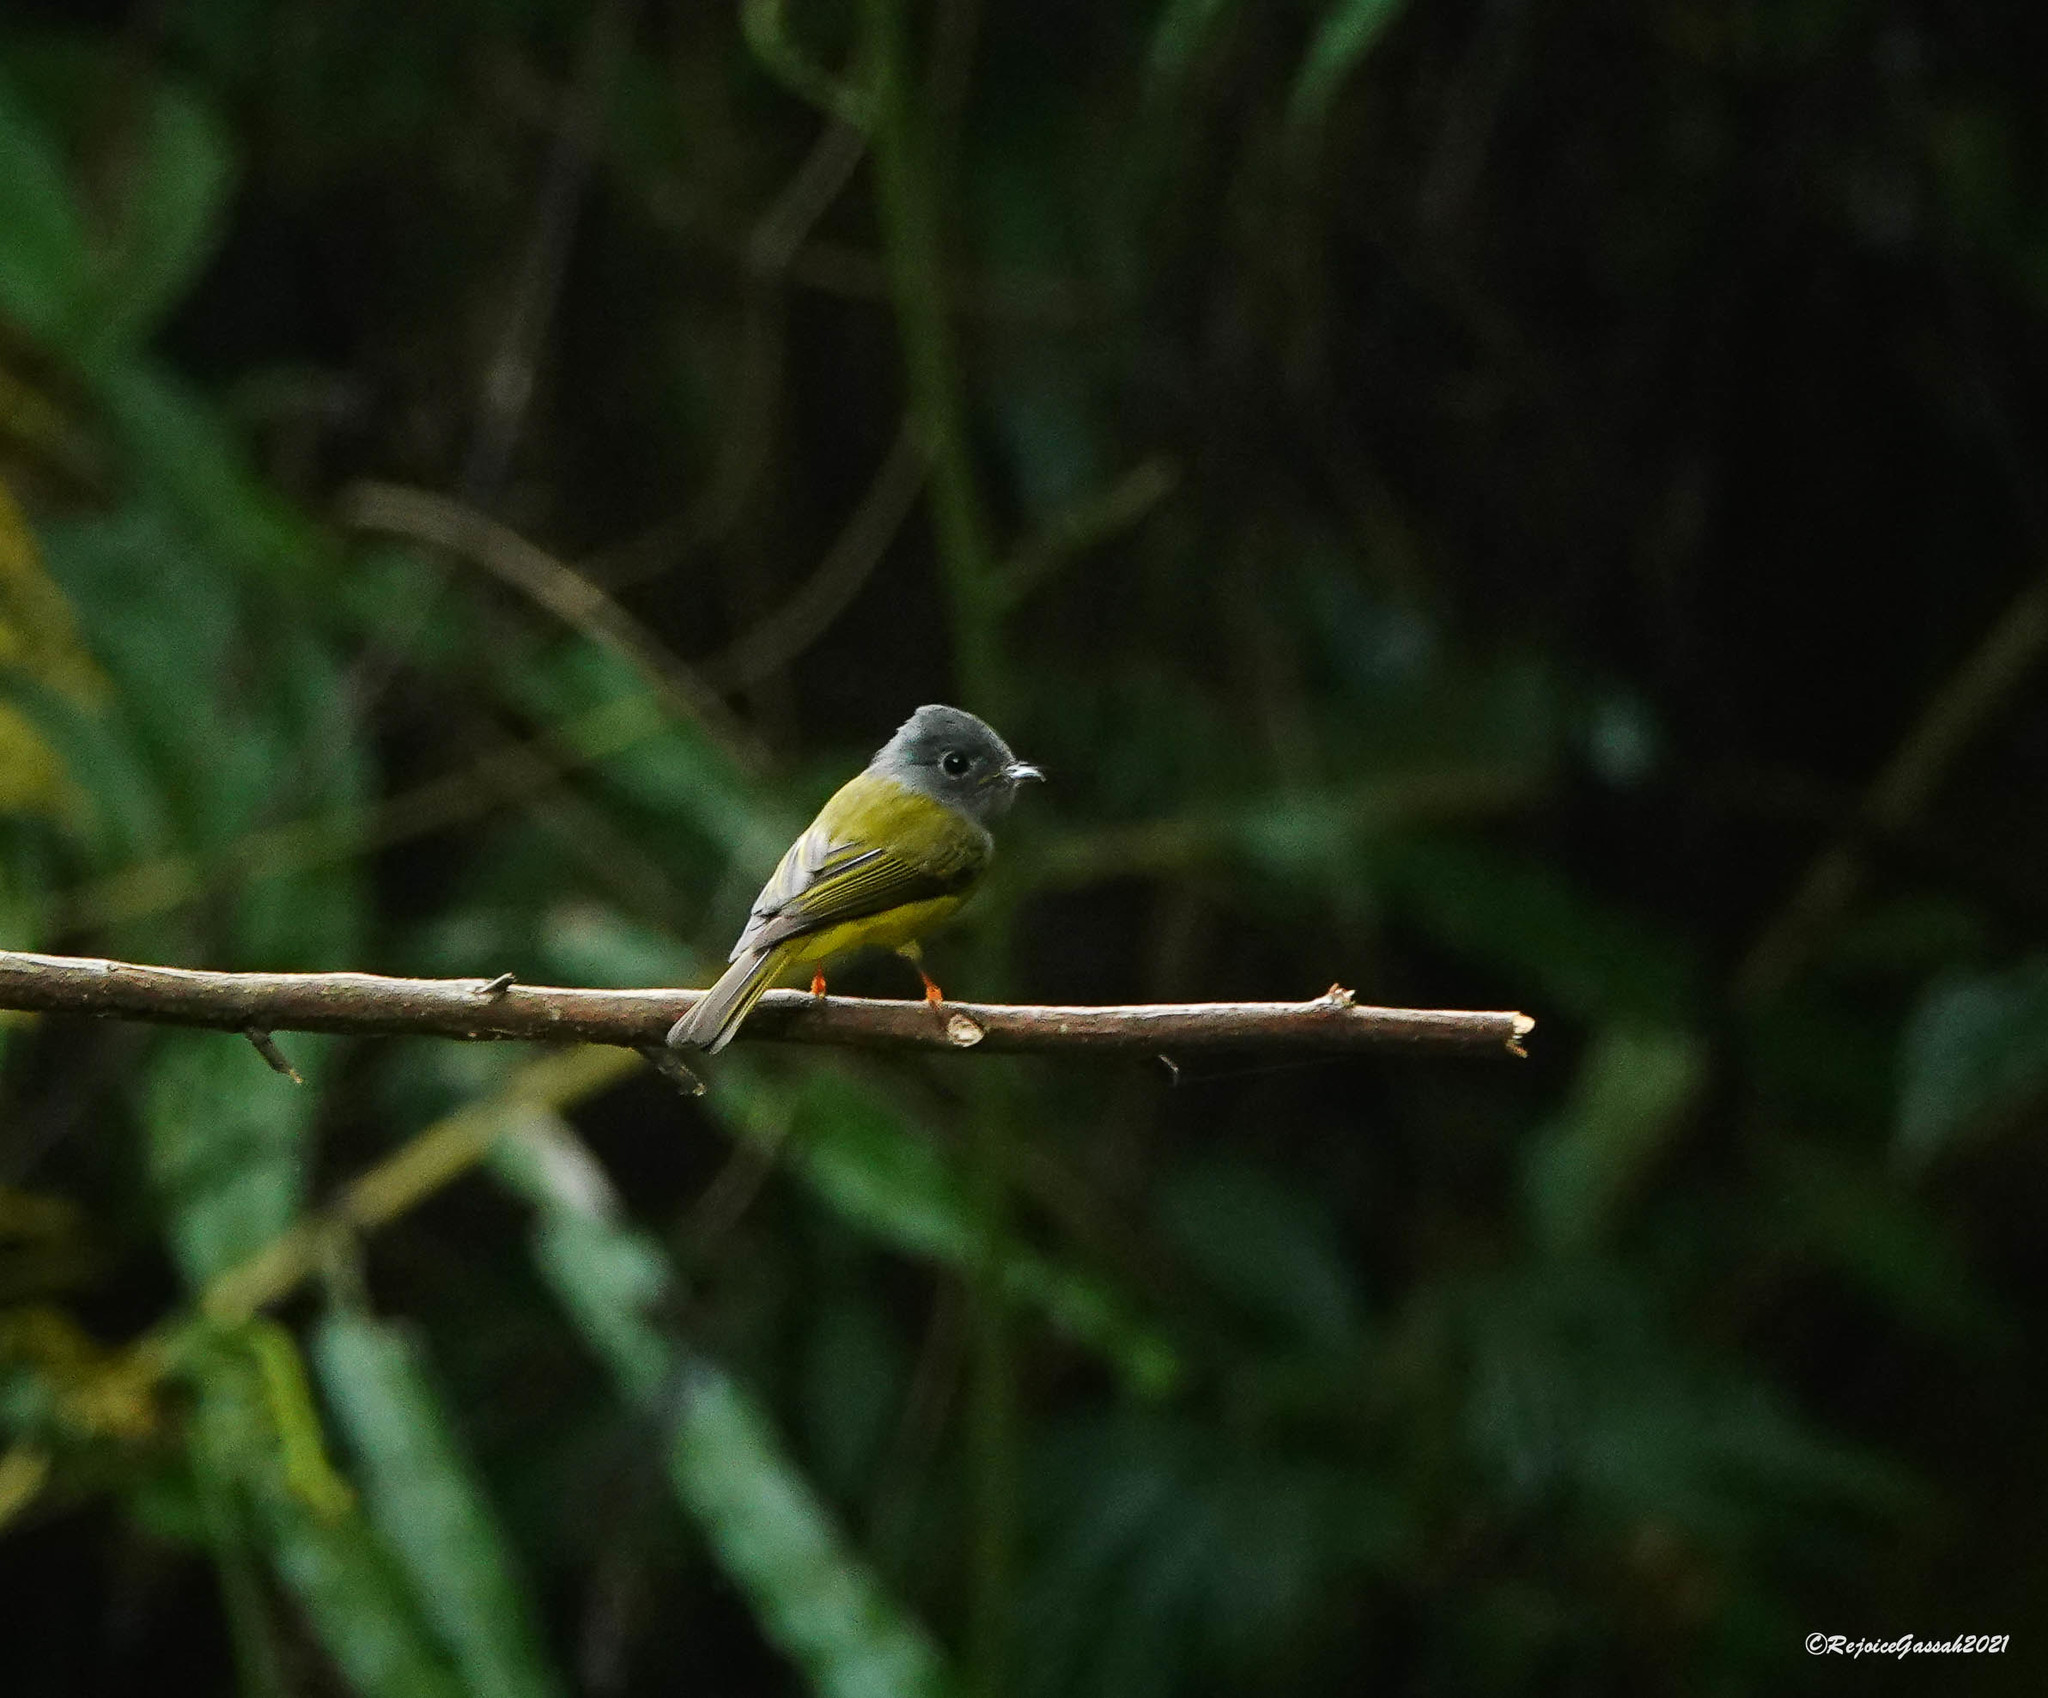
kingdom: Animalia
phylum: Chordata
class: Aves
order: Passeriformes
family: Stenostiridae
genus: Culicicapa
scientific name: Culicicapa ceylonensis
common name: Grey-headed canary-flycatcher
